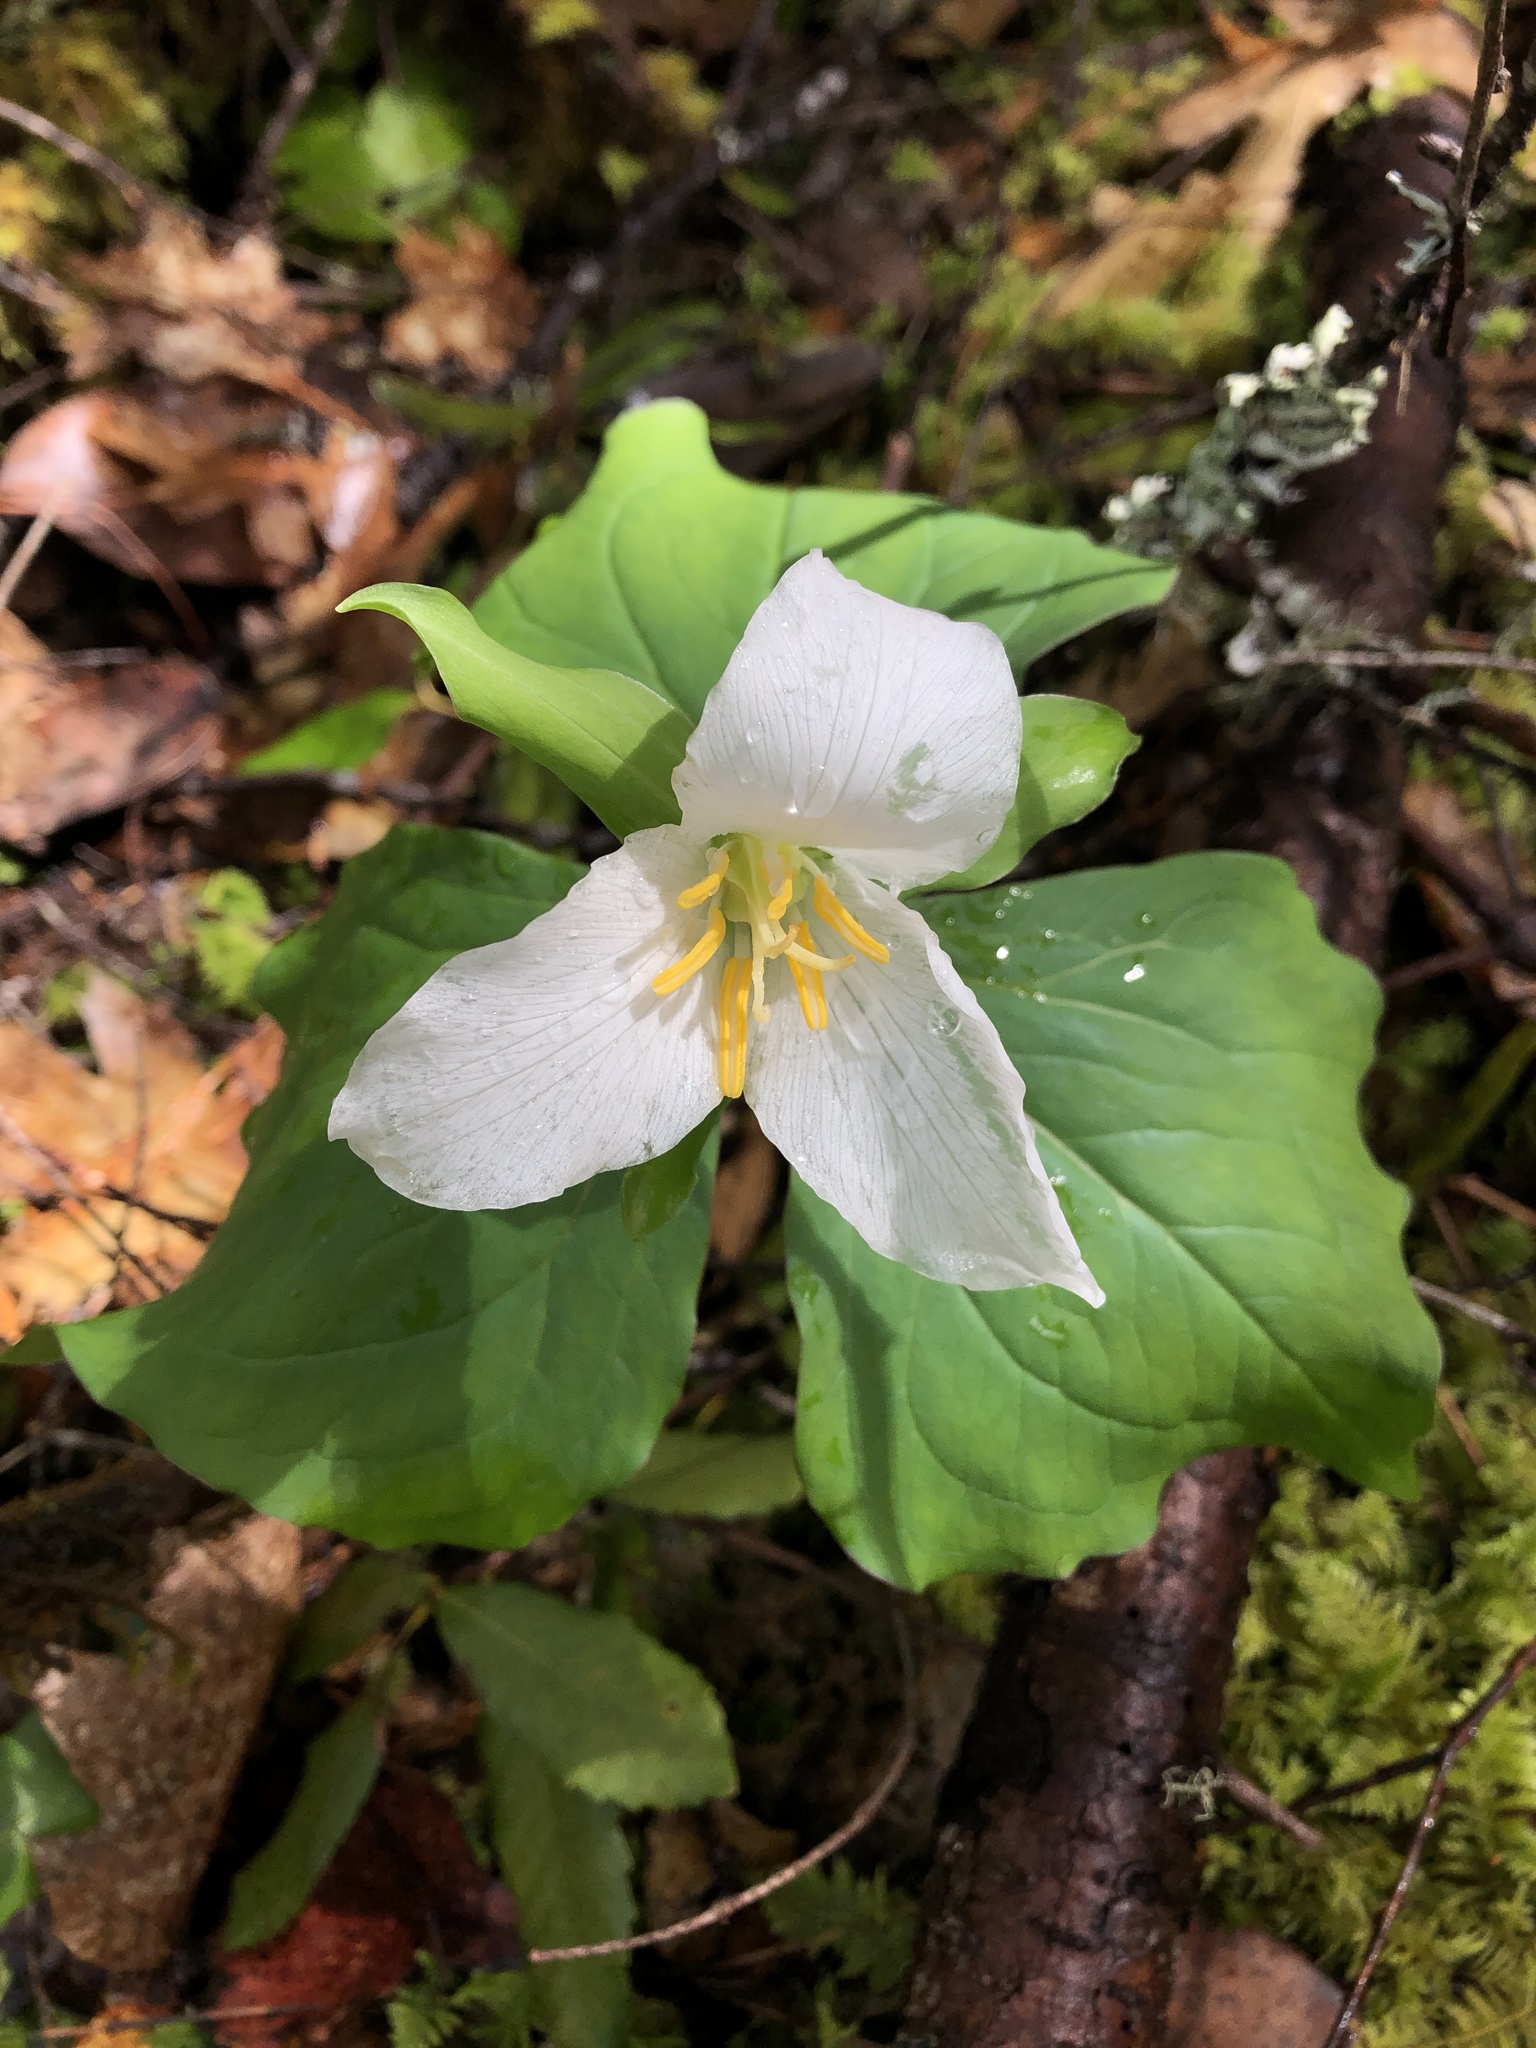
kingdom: Plantae
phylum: Tracheophyta
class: Liliopsida
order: Liliales
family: Melanthiaceae
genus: Trillium
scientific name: Trillium ovatum
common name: Pacific trillium
